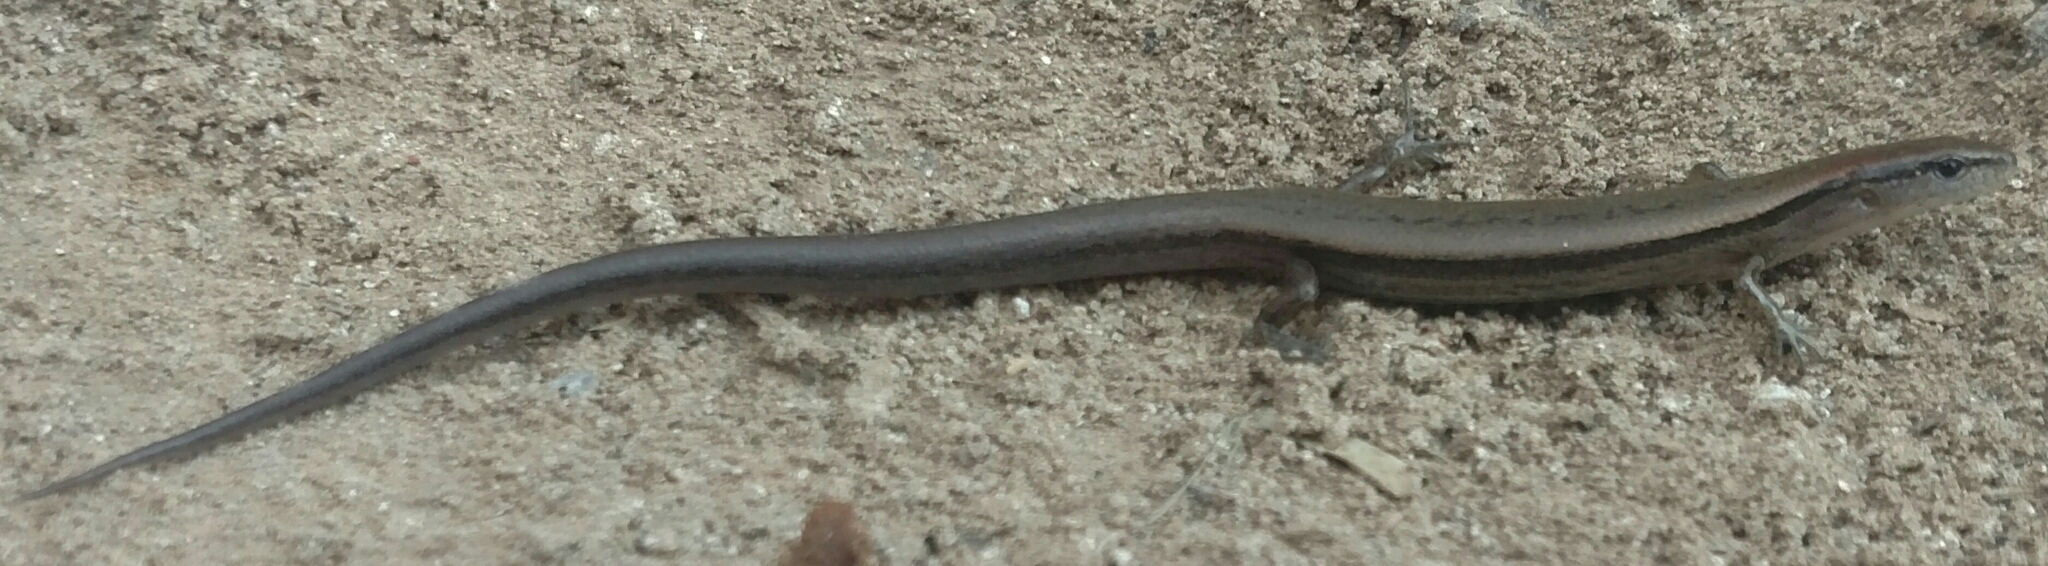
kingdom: Animalia
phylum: Chordata
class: Squamata
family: Scincidae
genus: Scincella
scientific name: Scincella lateralis
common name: Ground skink
